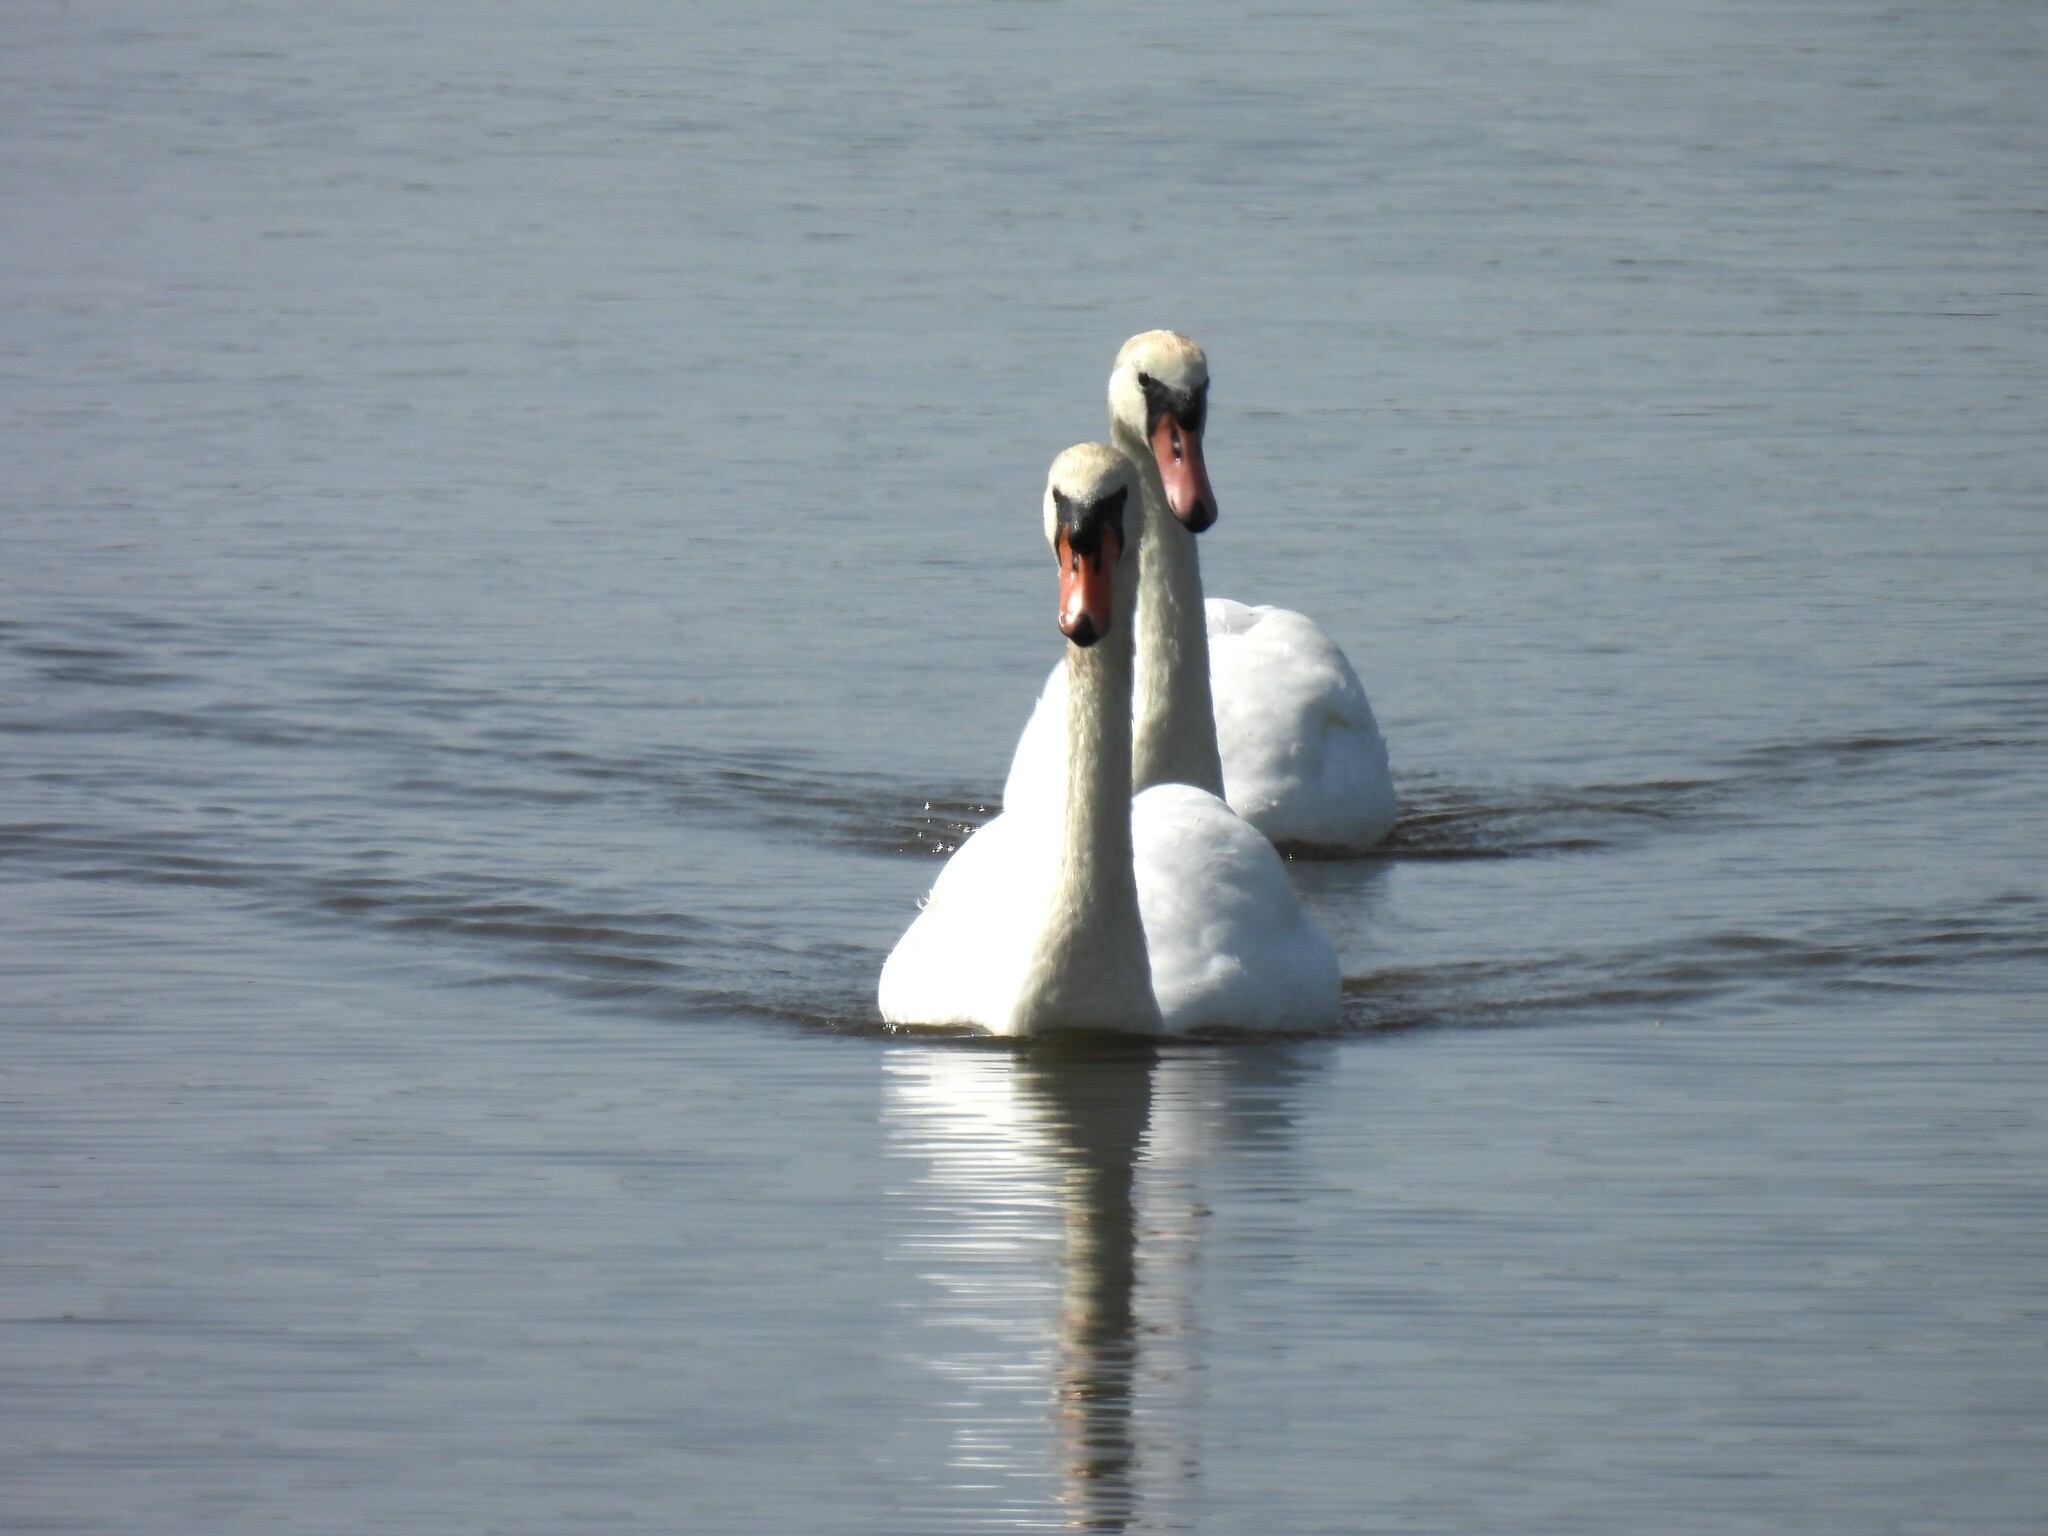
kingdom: Animalia
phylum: Chordata
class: Aves
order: Anseriformes
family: Anatidae
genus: Cygnus
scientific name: Cygnus olor
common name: Mute swan
